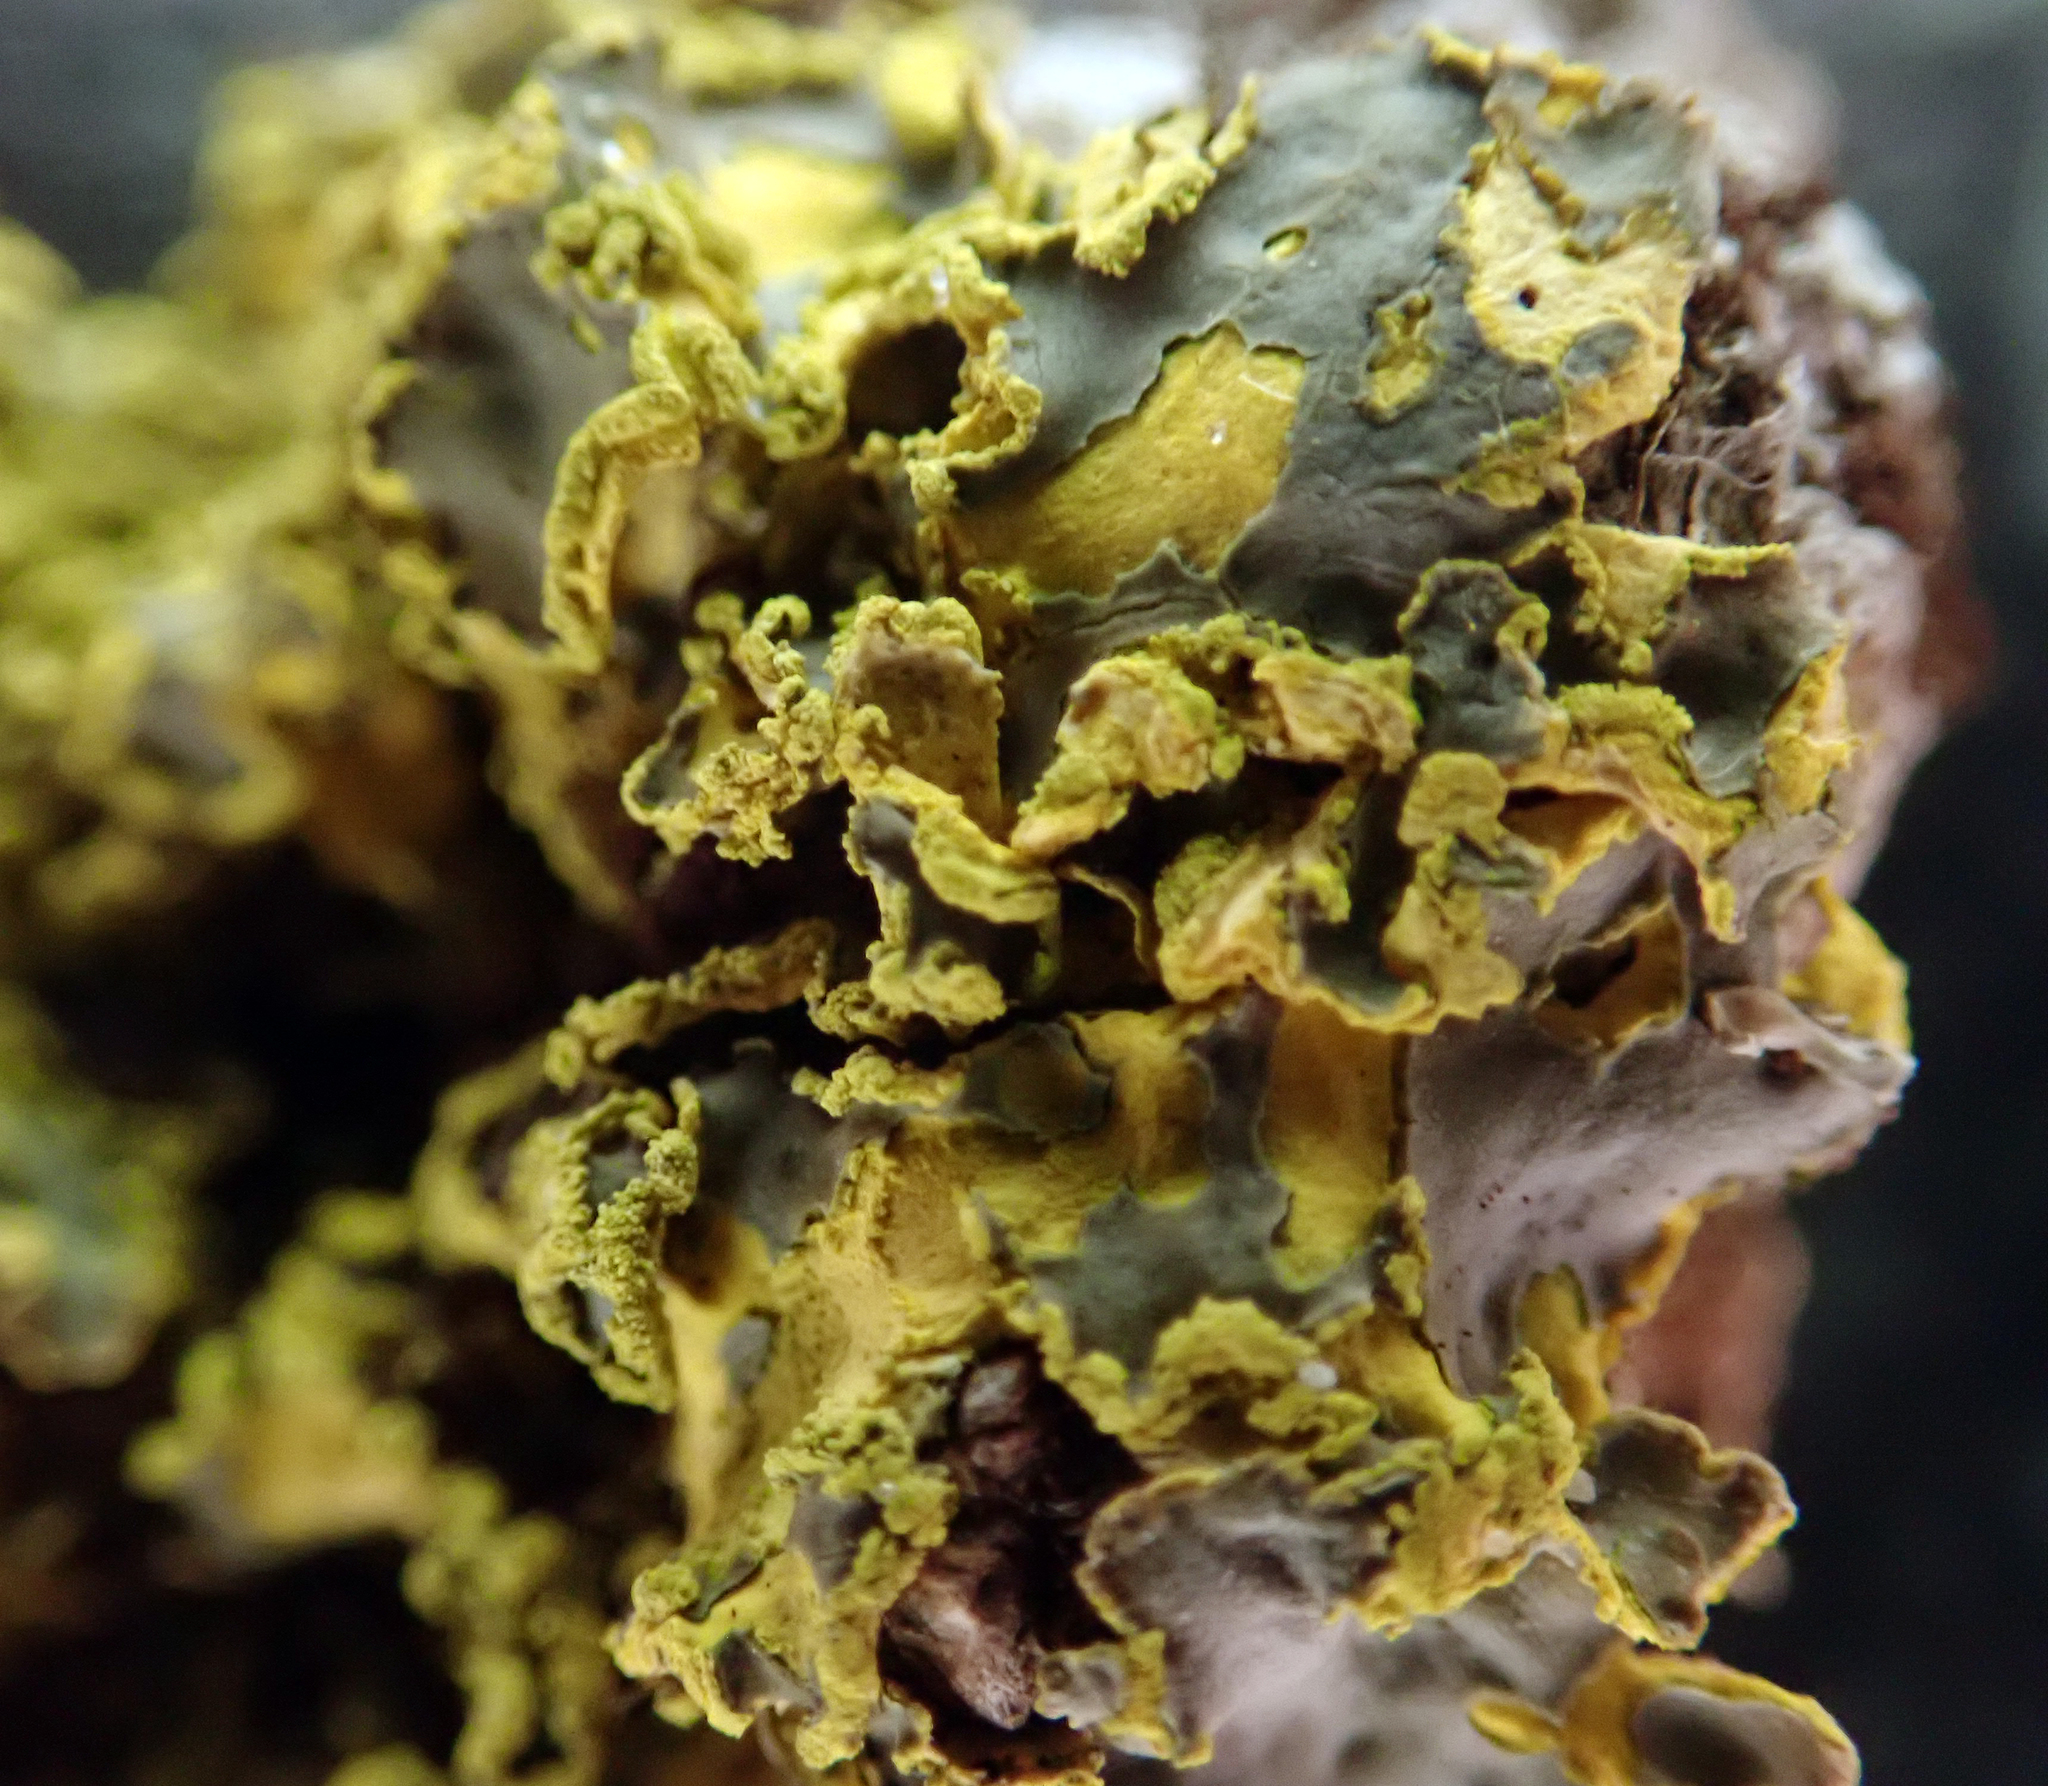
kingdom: Fungi
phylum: Ascomycota
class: Lecanoromycetes
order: Peltigerales
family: Lobariaceae
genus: Pseudocyphellaria
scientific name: Pseudocyphellaria aurata
